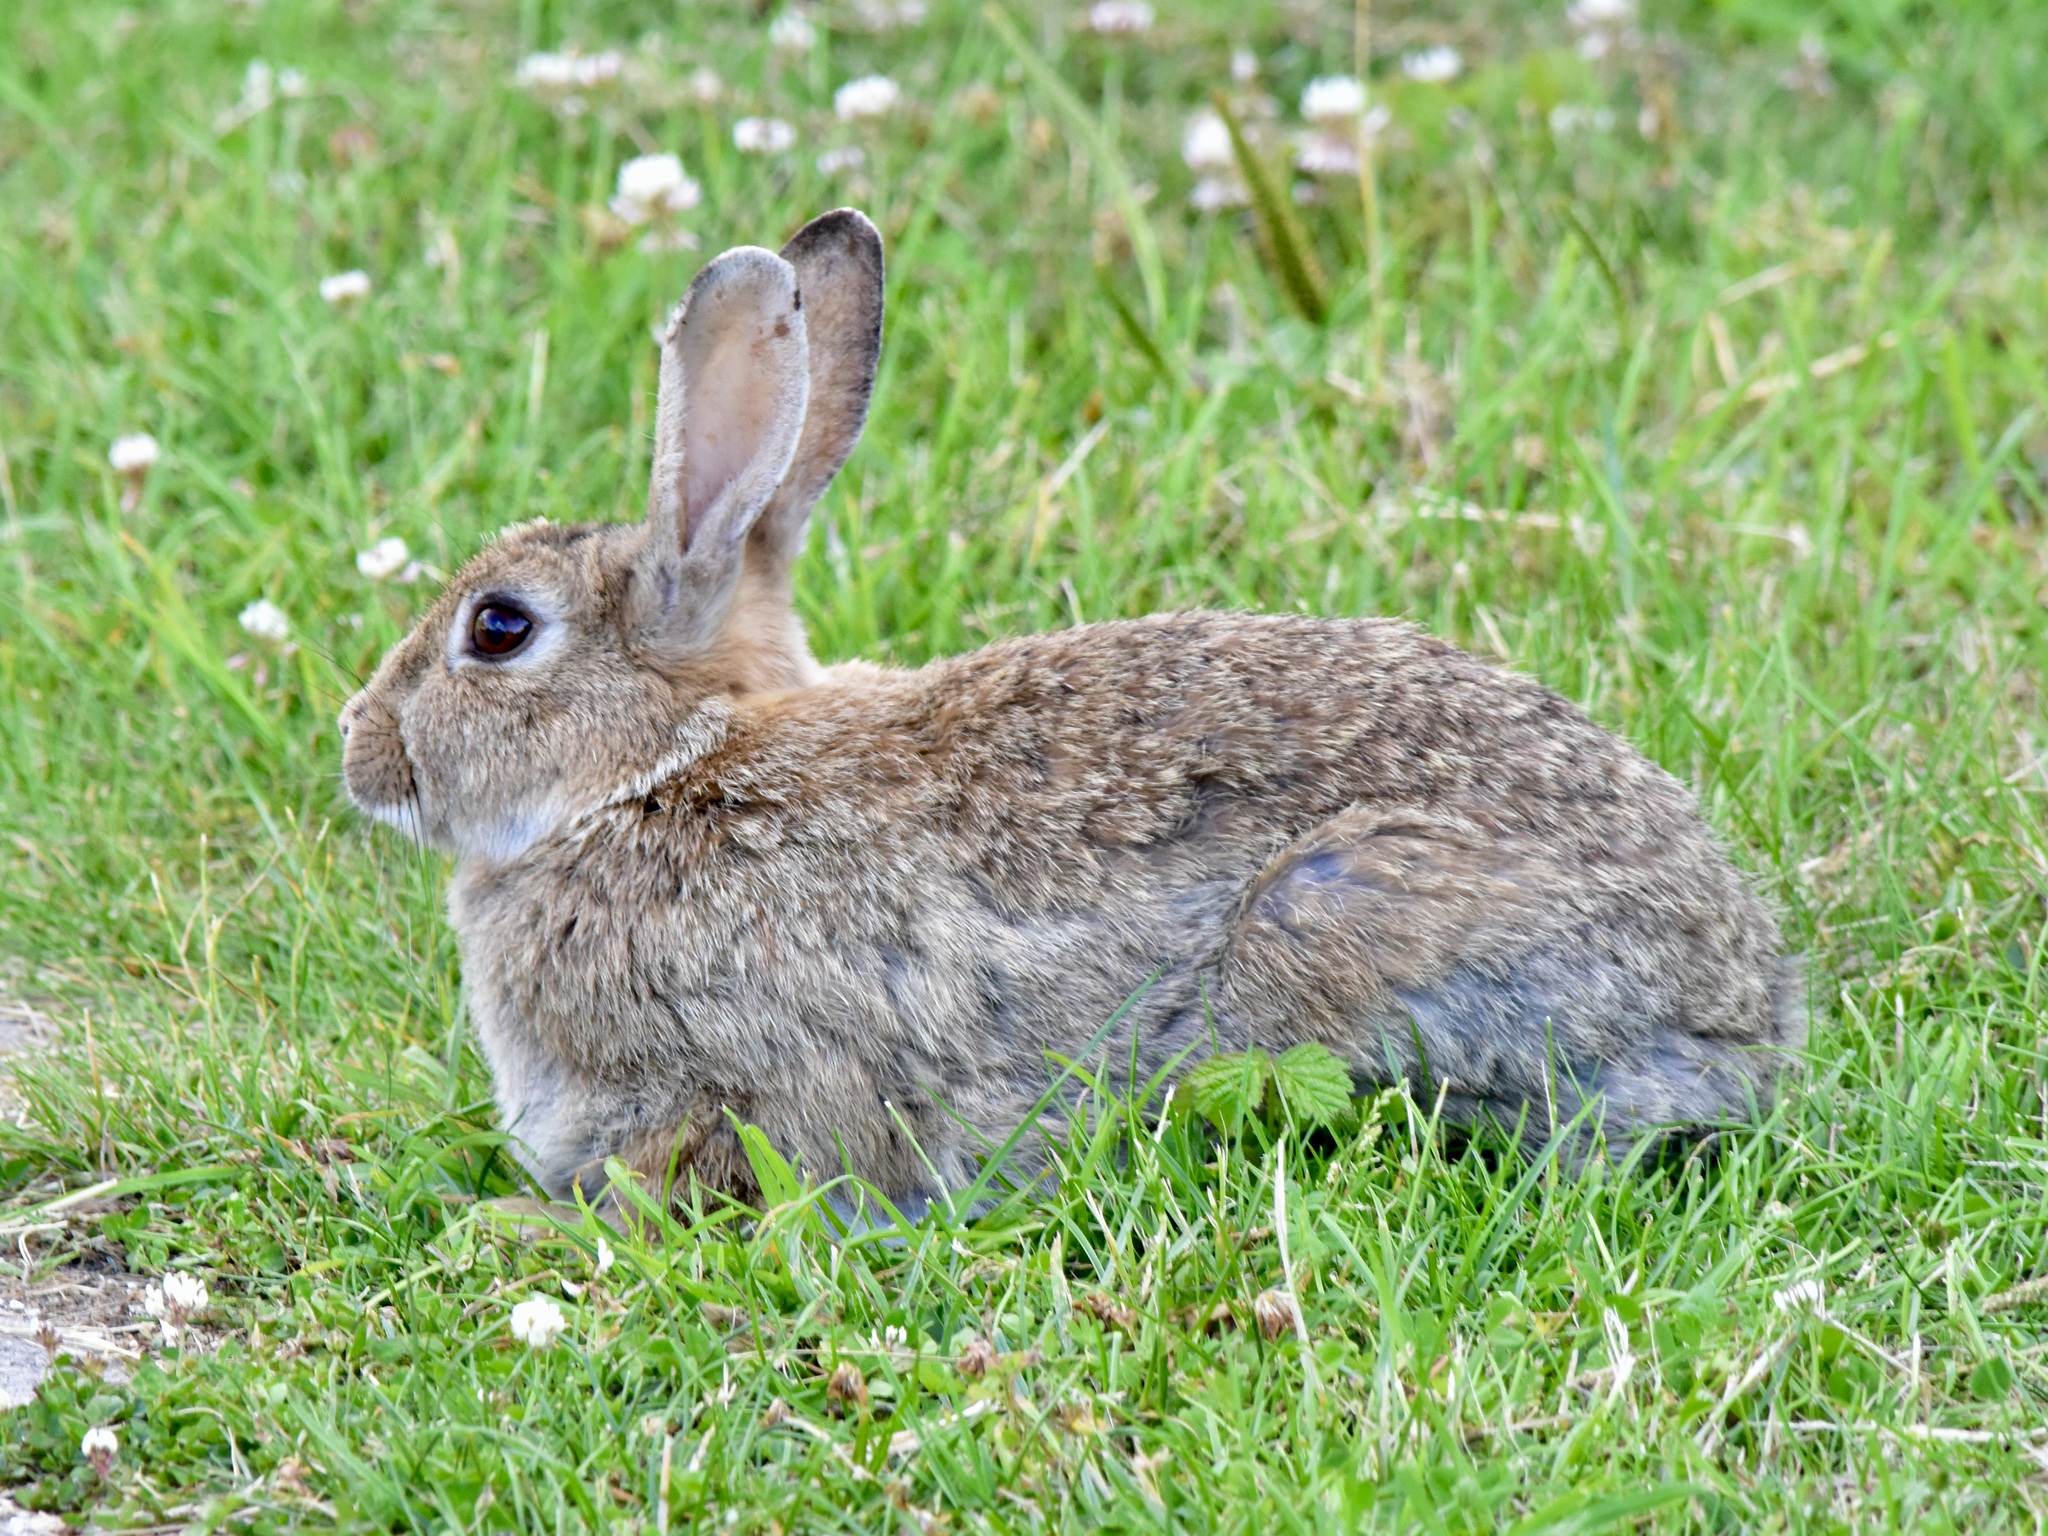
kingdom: Animalia
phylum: Chordata
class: Mammalia
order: Lagomorpha
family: Leporidae
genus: Oryctolagus
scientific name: Oryctolagus cuniculus
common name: European rabbit
